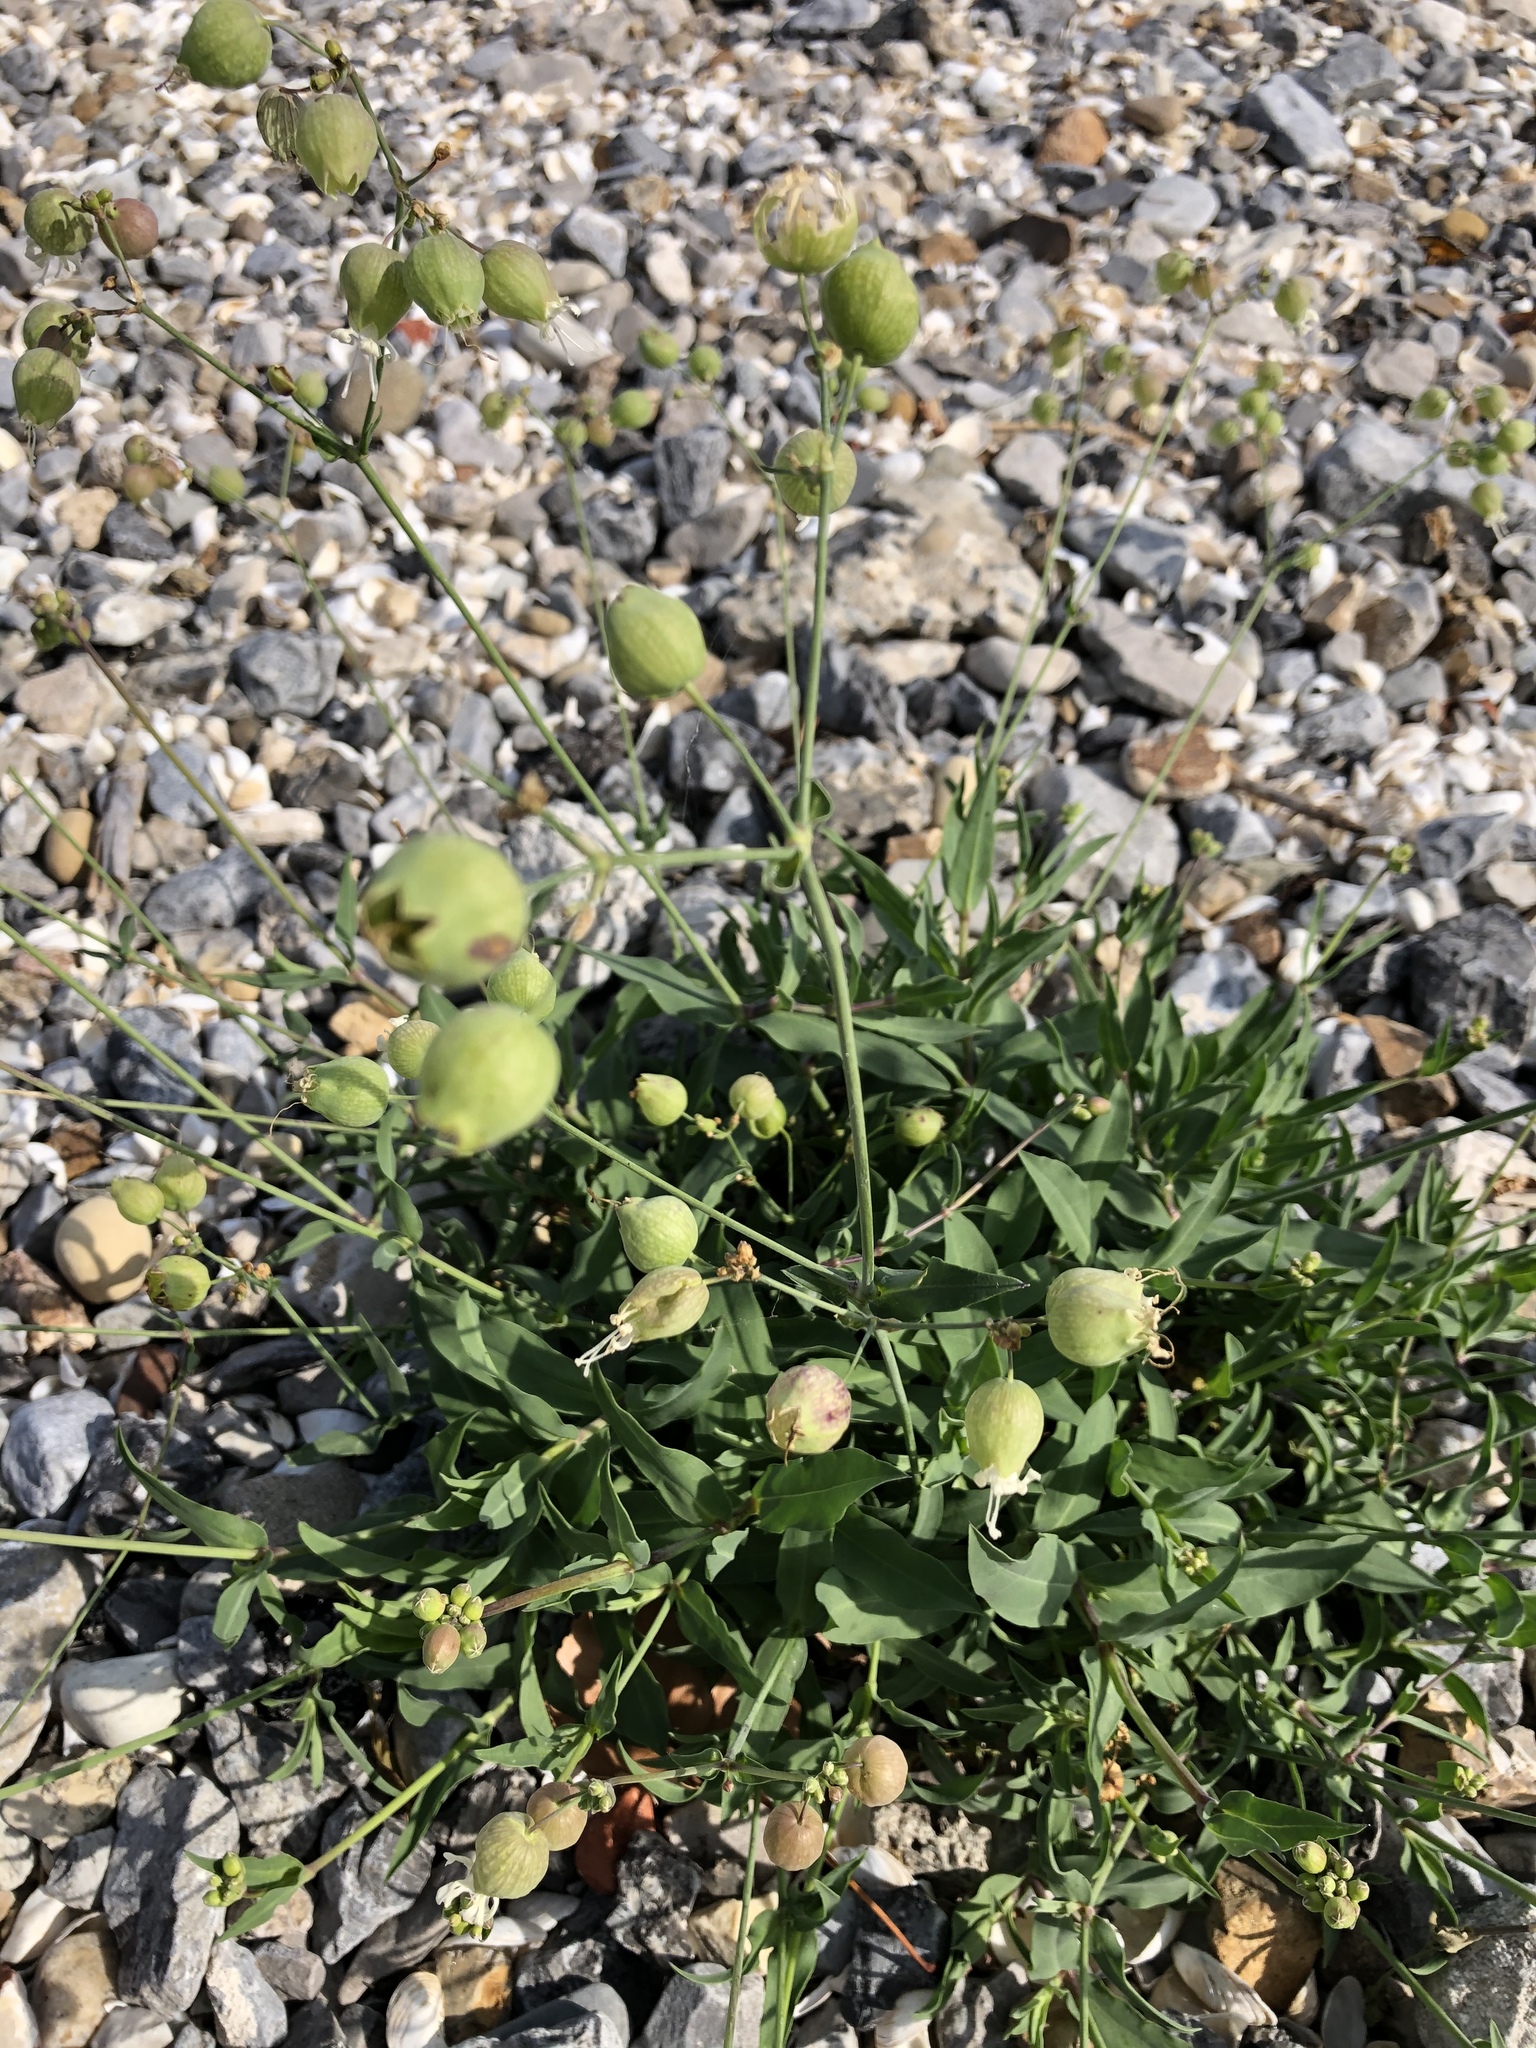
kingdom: Plantae
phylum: Tracheophyta
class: Magnoliopsida
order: Caryophyllales
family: Caryophyllaceae
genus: Silene
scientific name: Silene vulgaris
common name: Bladder campion
